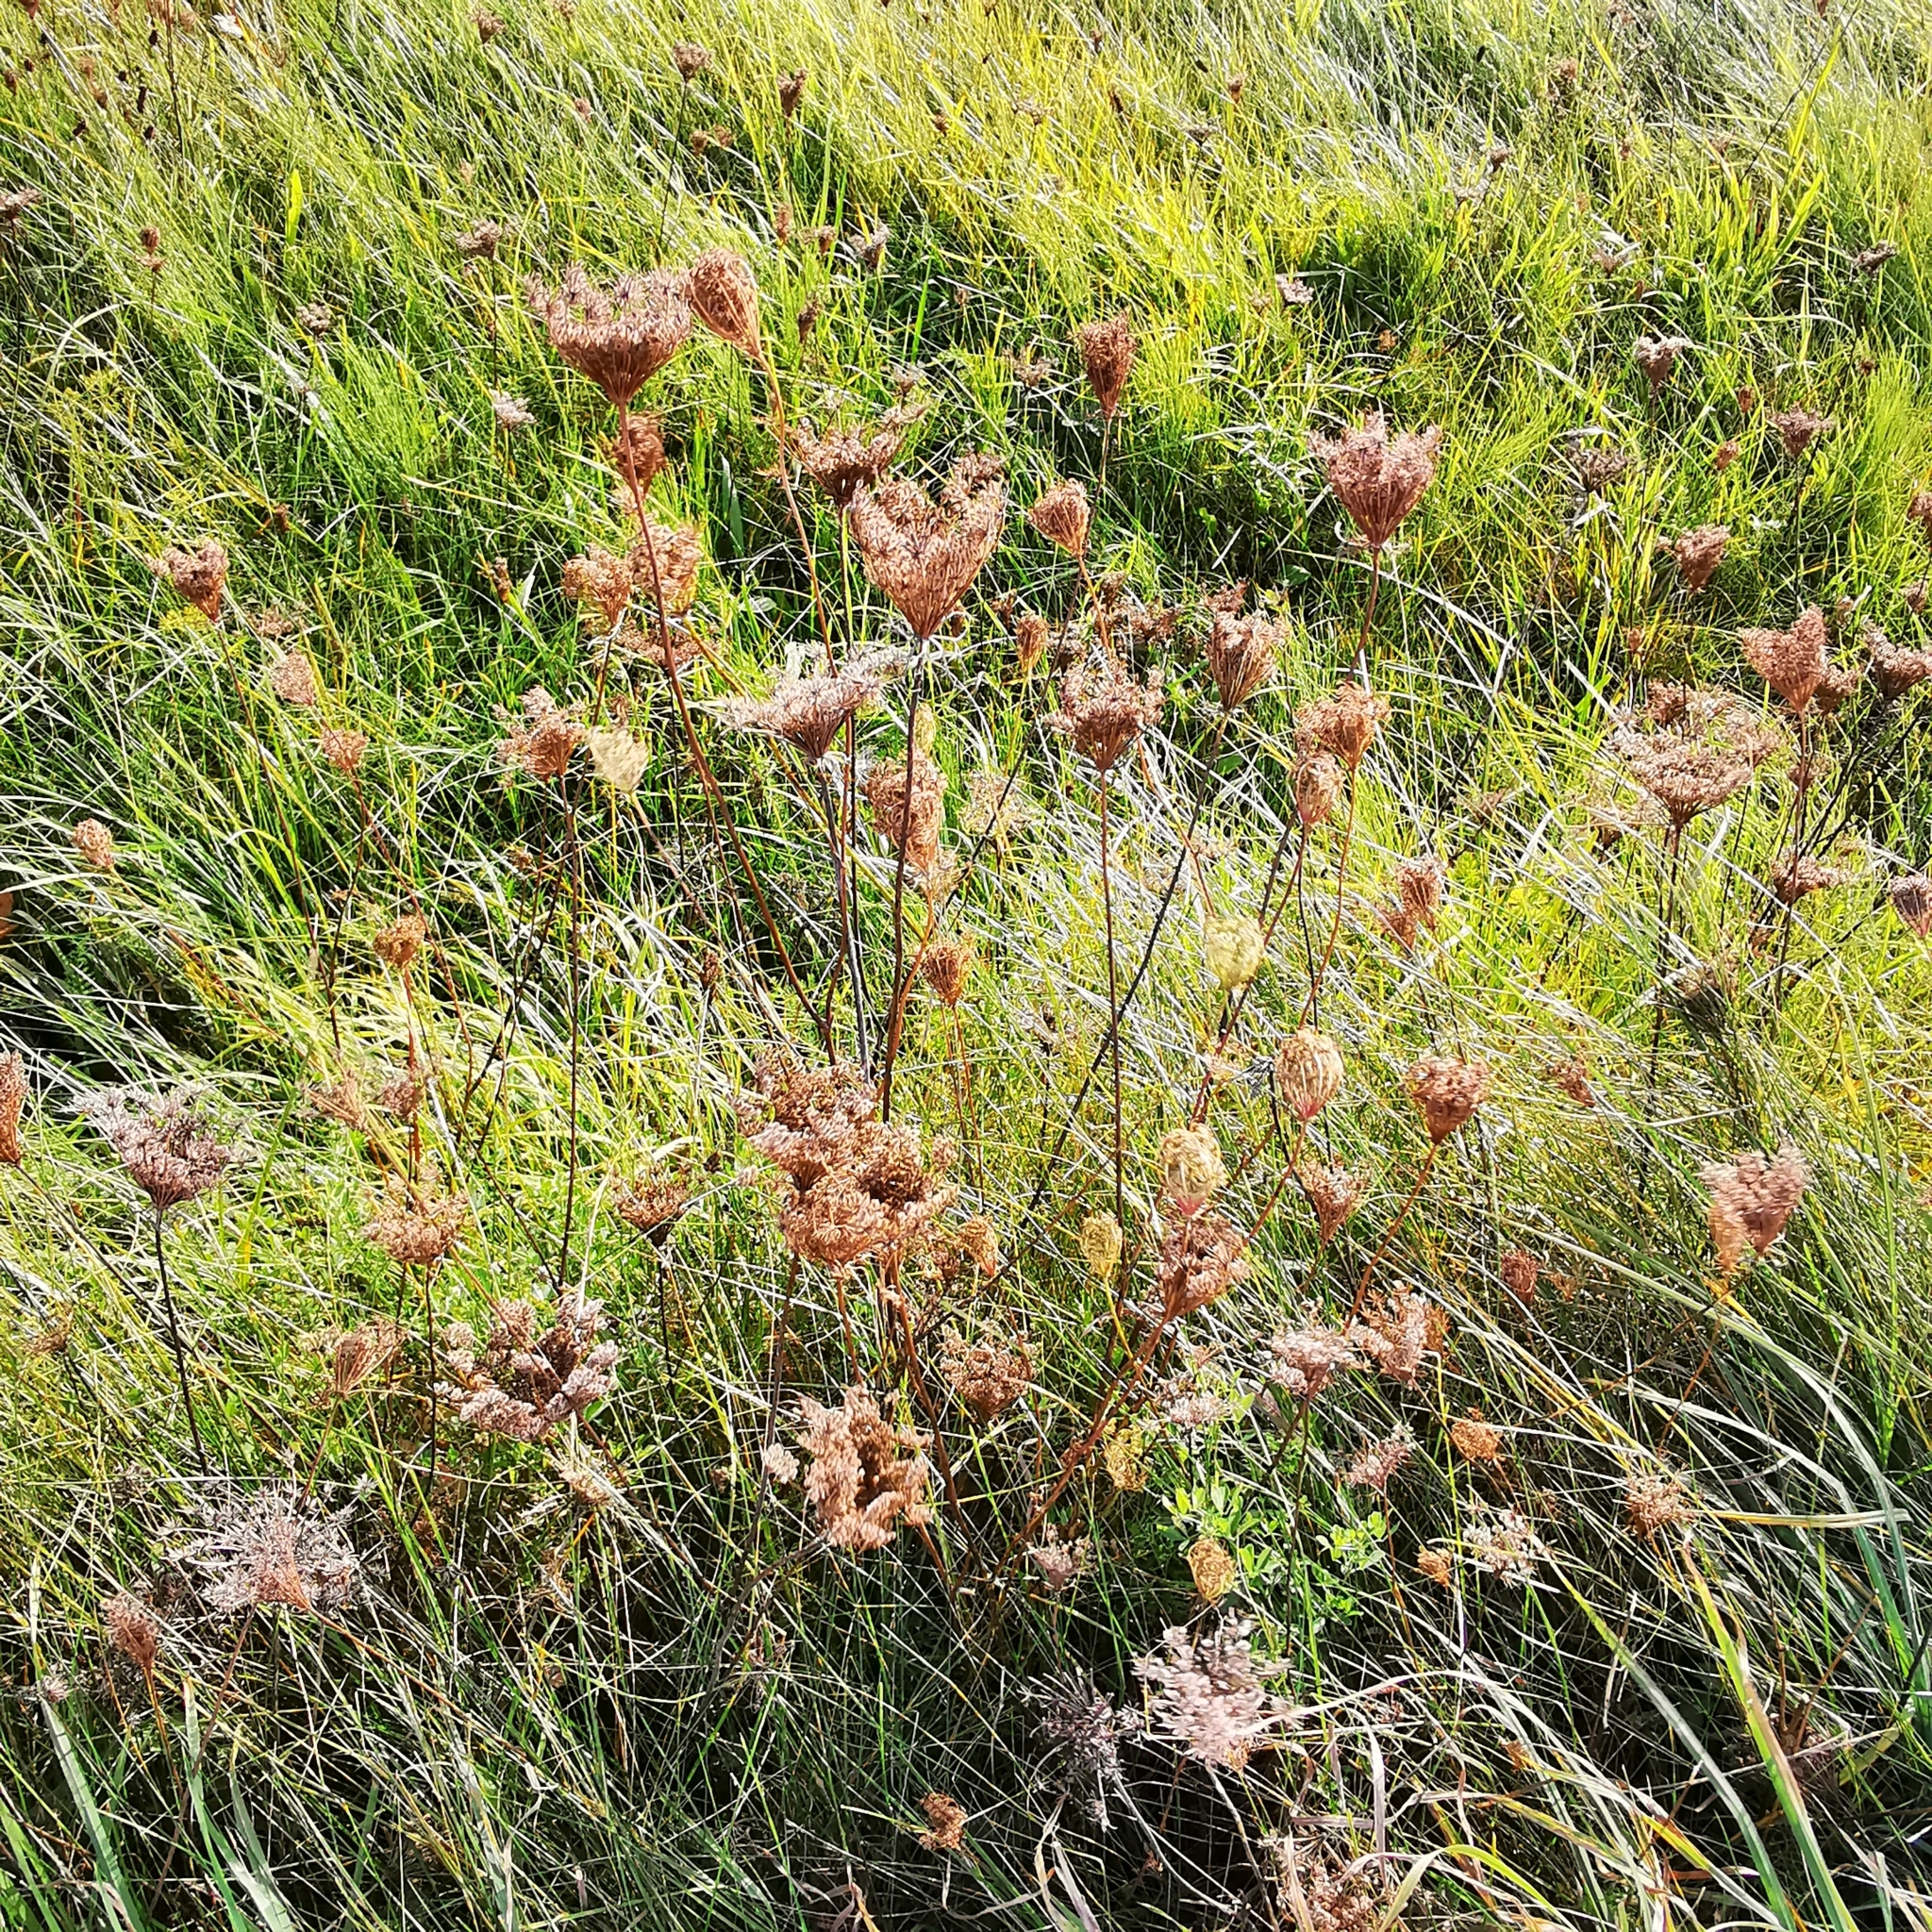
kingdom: Plantae
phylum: Tracheophyta
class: Magnoliopsida
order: Apiales
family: Apiaceae
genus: Daucus
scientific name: Daucus carota
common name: Wild carrot
